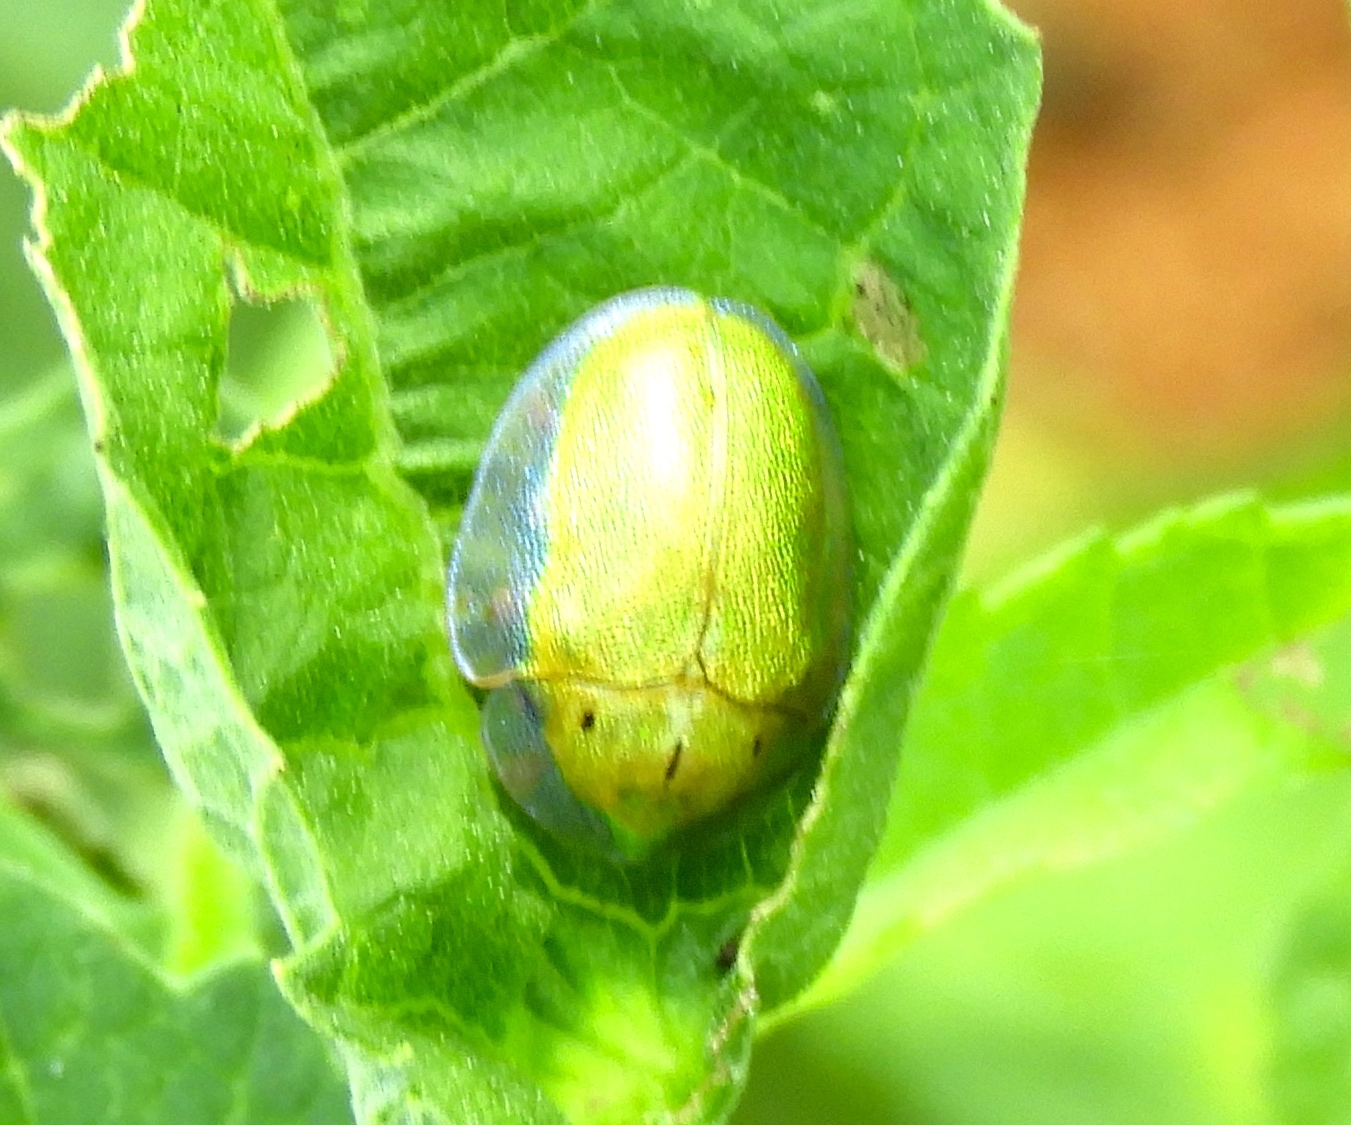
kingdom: Animalia
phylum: Arthropoda
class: Insecta
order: Coleoptera
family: Chrysomelidae
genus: Physonota
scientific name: Physonota arizonae
